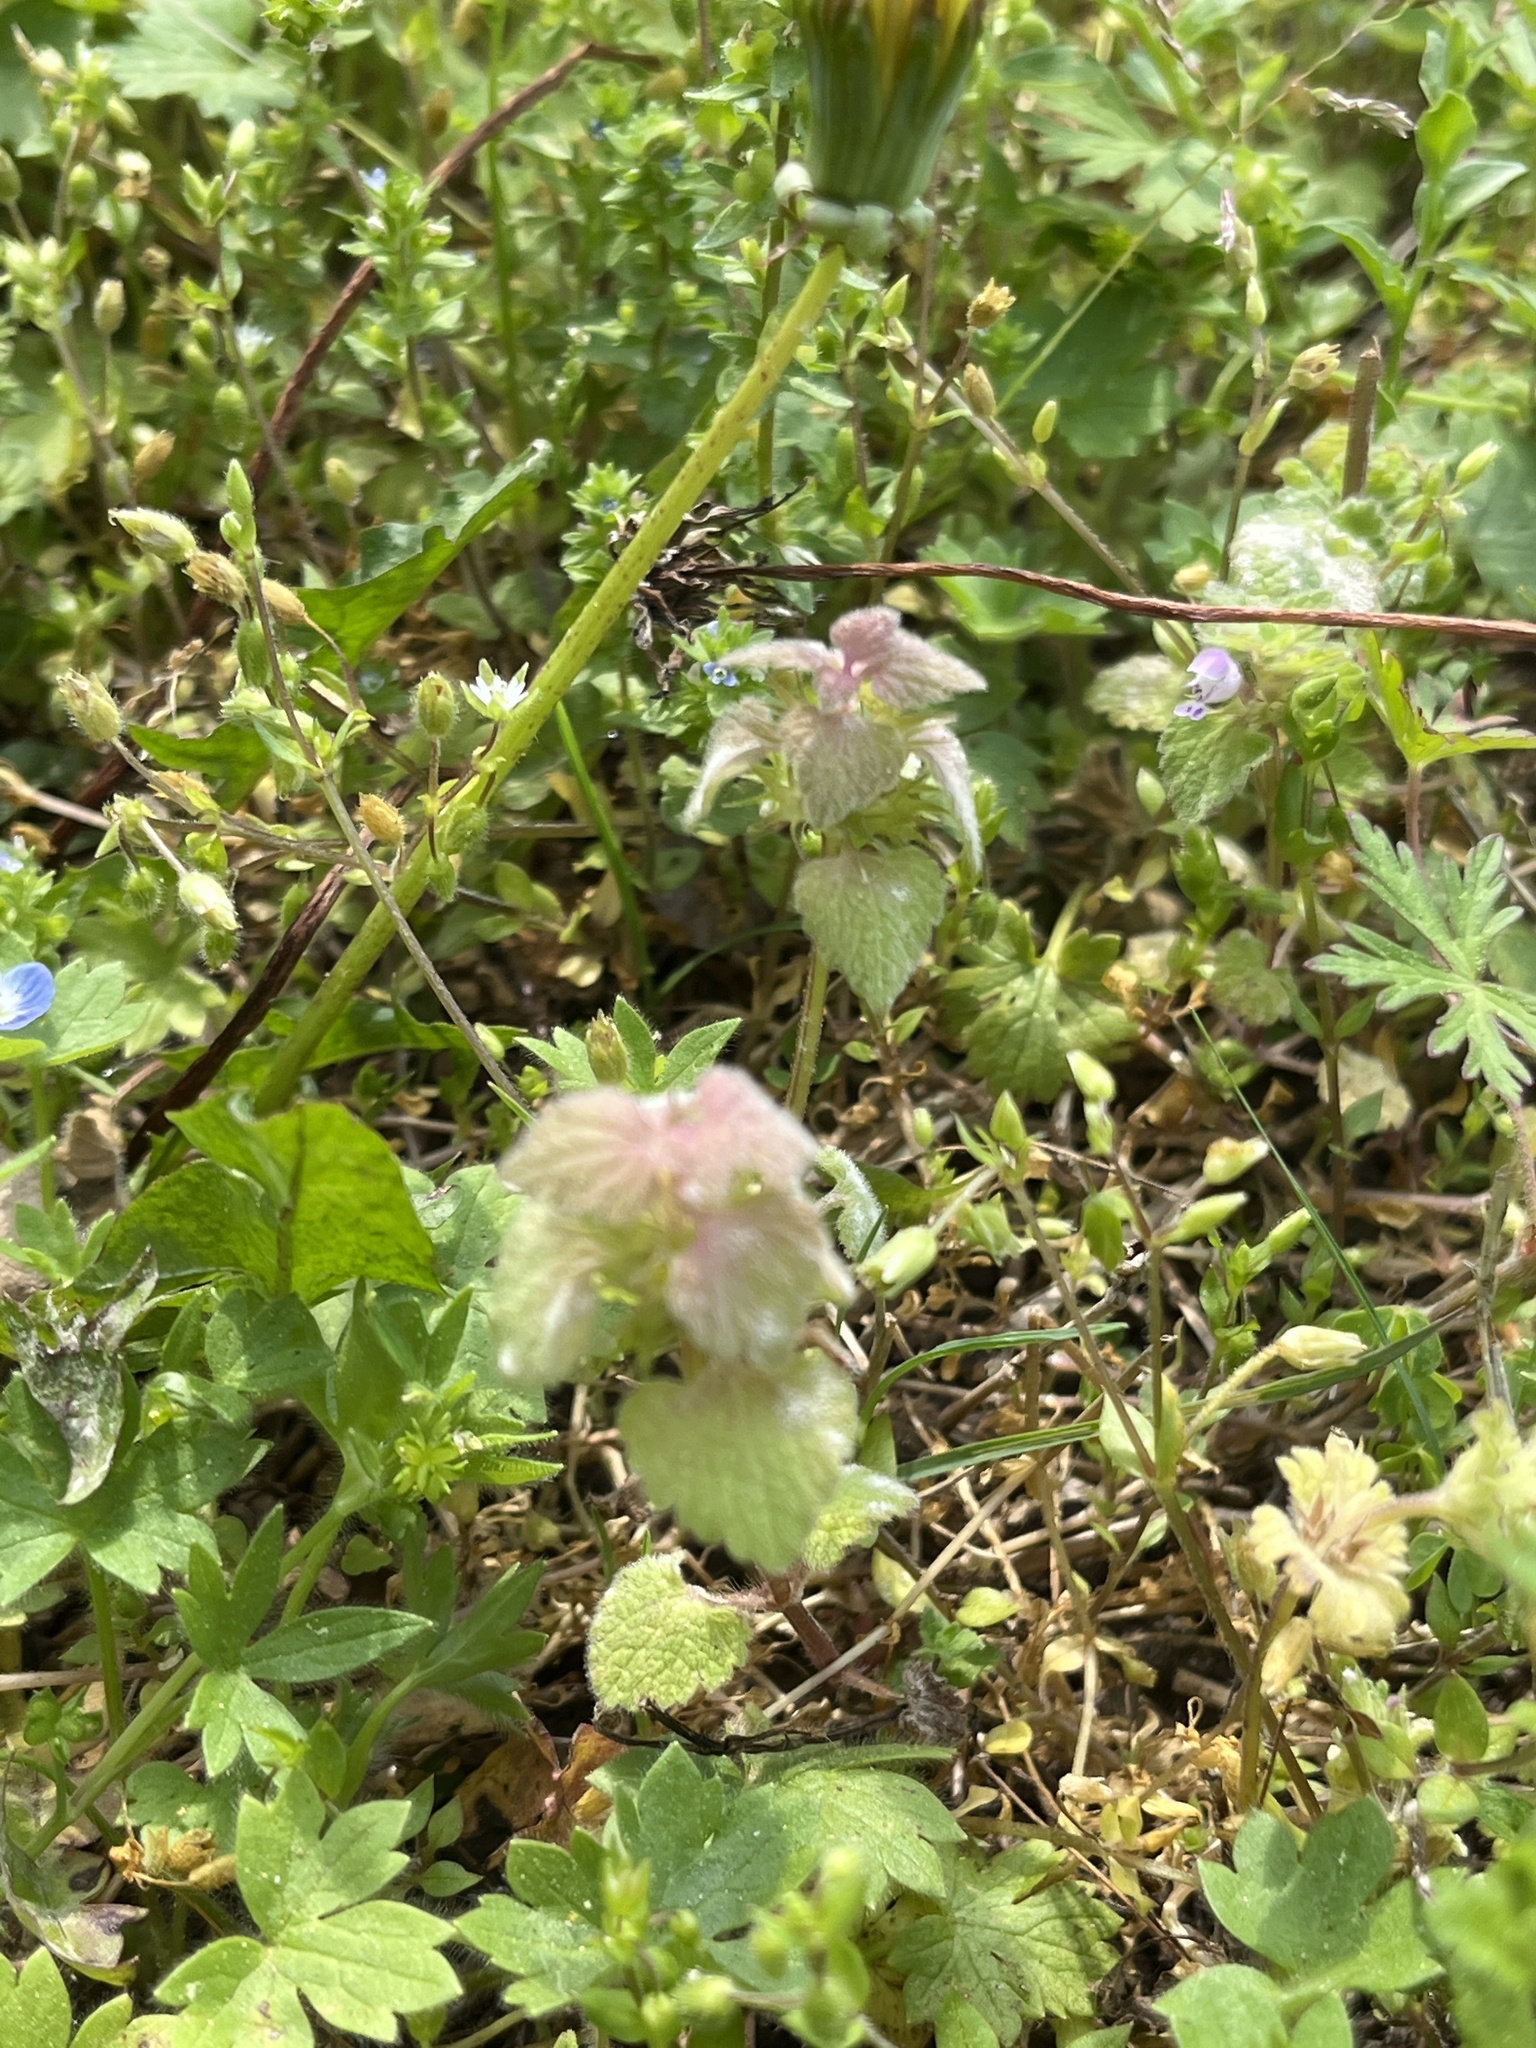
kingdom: Plantae
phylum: Tracheophyta
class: Magnoliopsida
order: Lamiales
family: Lamiaceae
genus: Lamium
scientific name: Lamium purpureum
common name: Red dead-nettle
